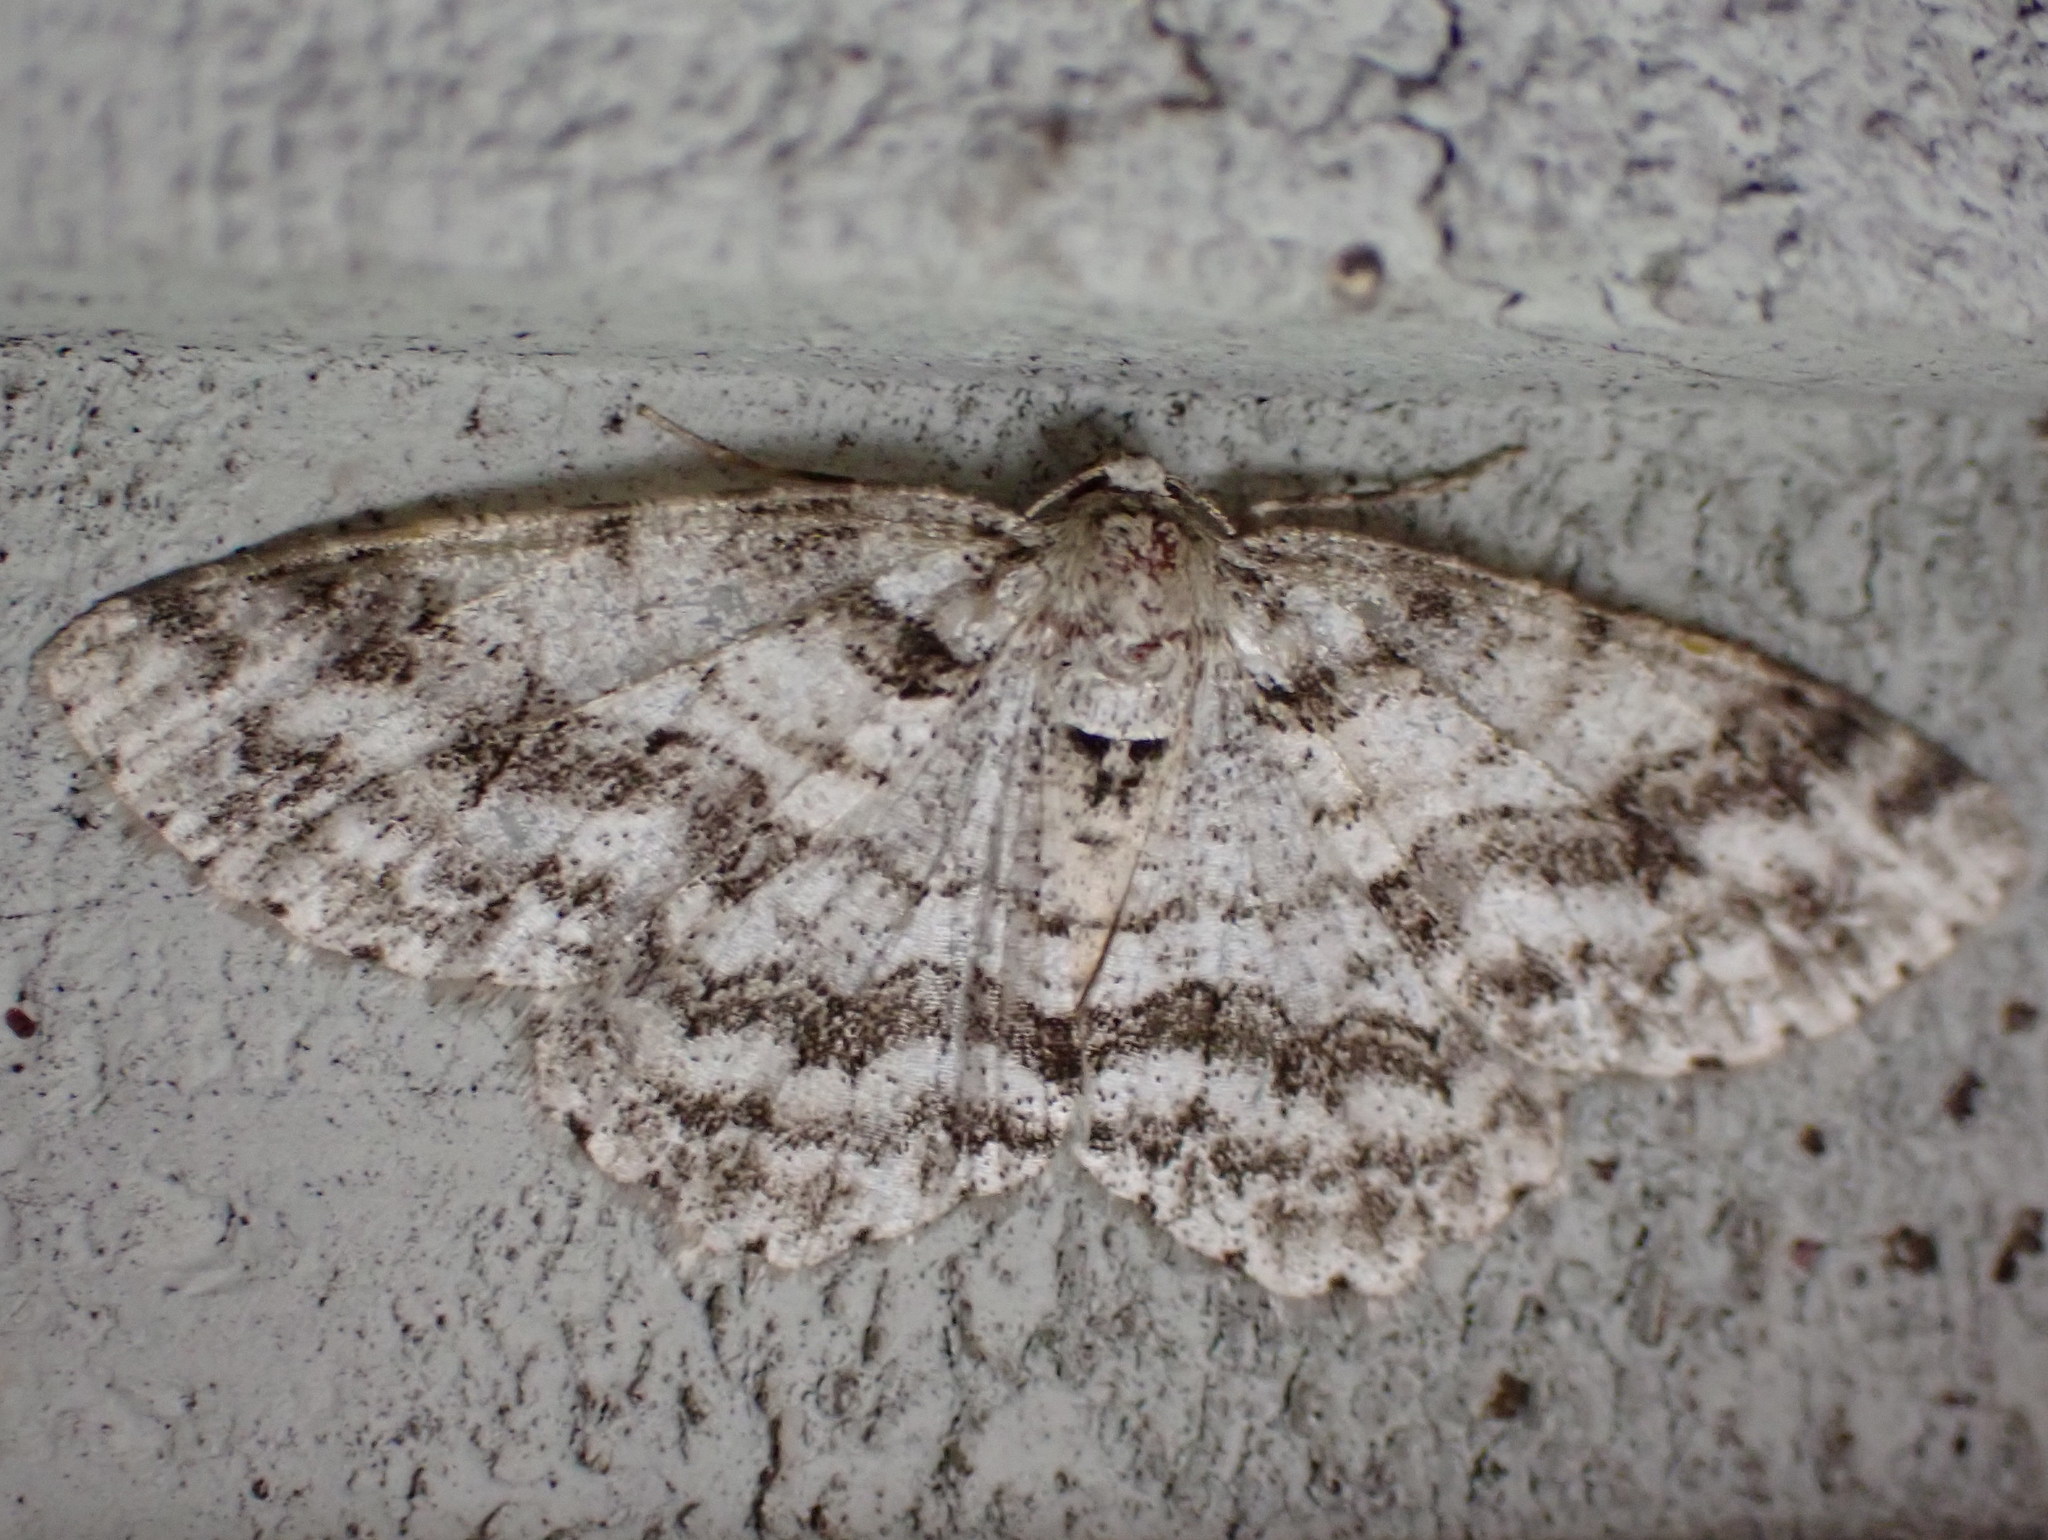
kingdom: Animalia
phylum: Arthropoda
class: Insecta
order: Lepidoptera
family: Geometridae
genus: Ectropis
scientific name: Ectropis crepuscularia
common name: Engrailed
